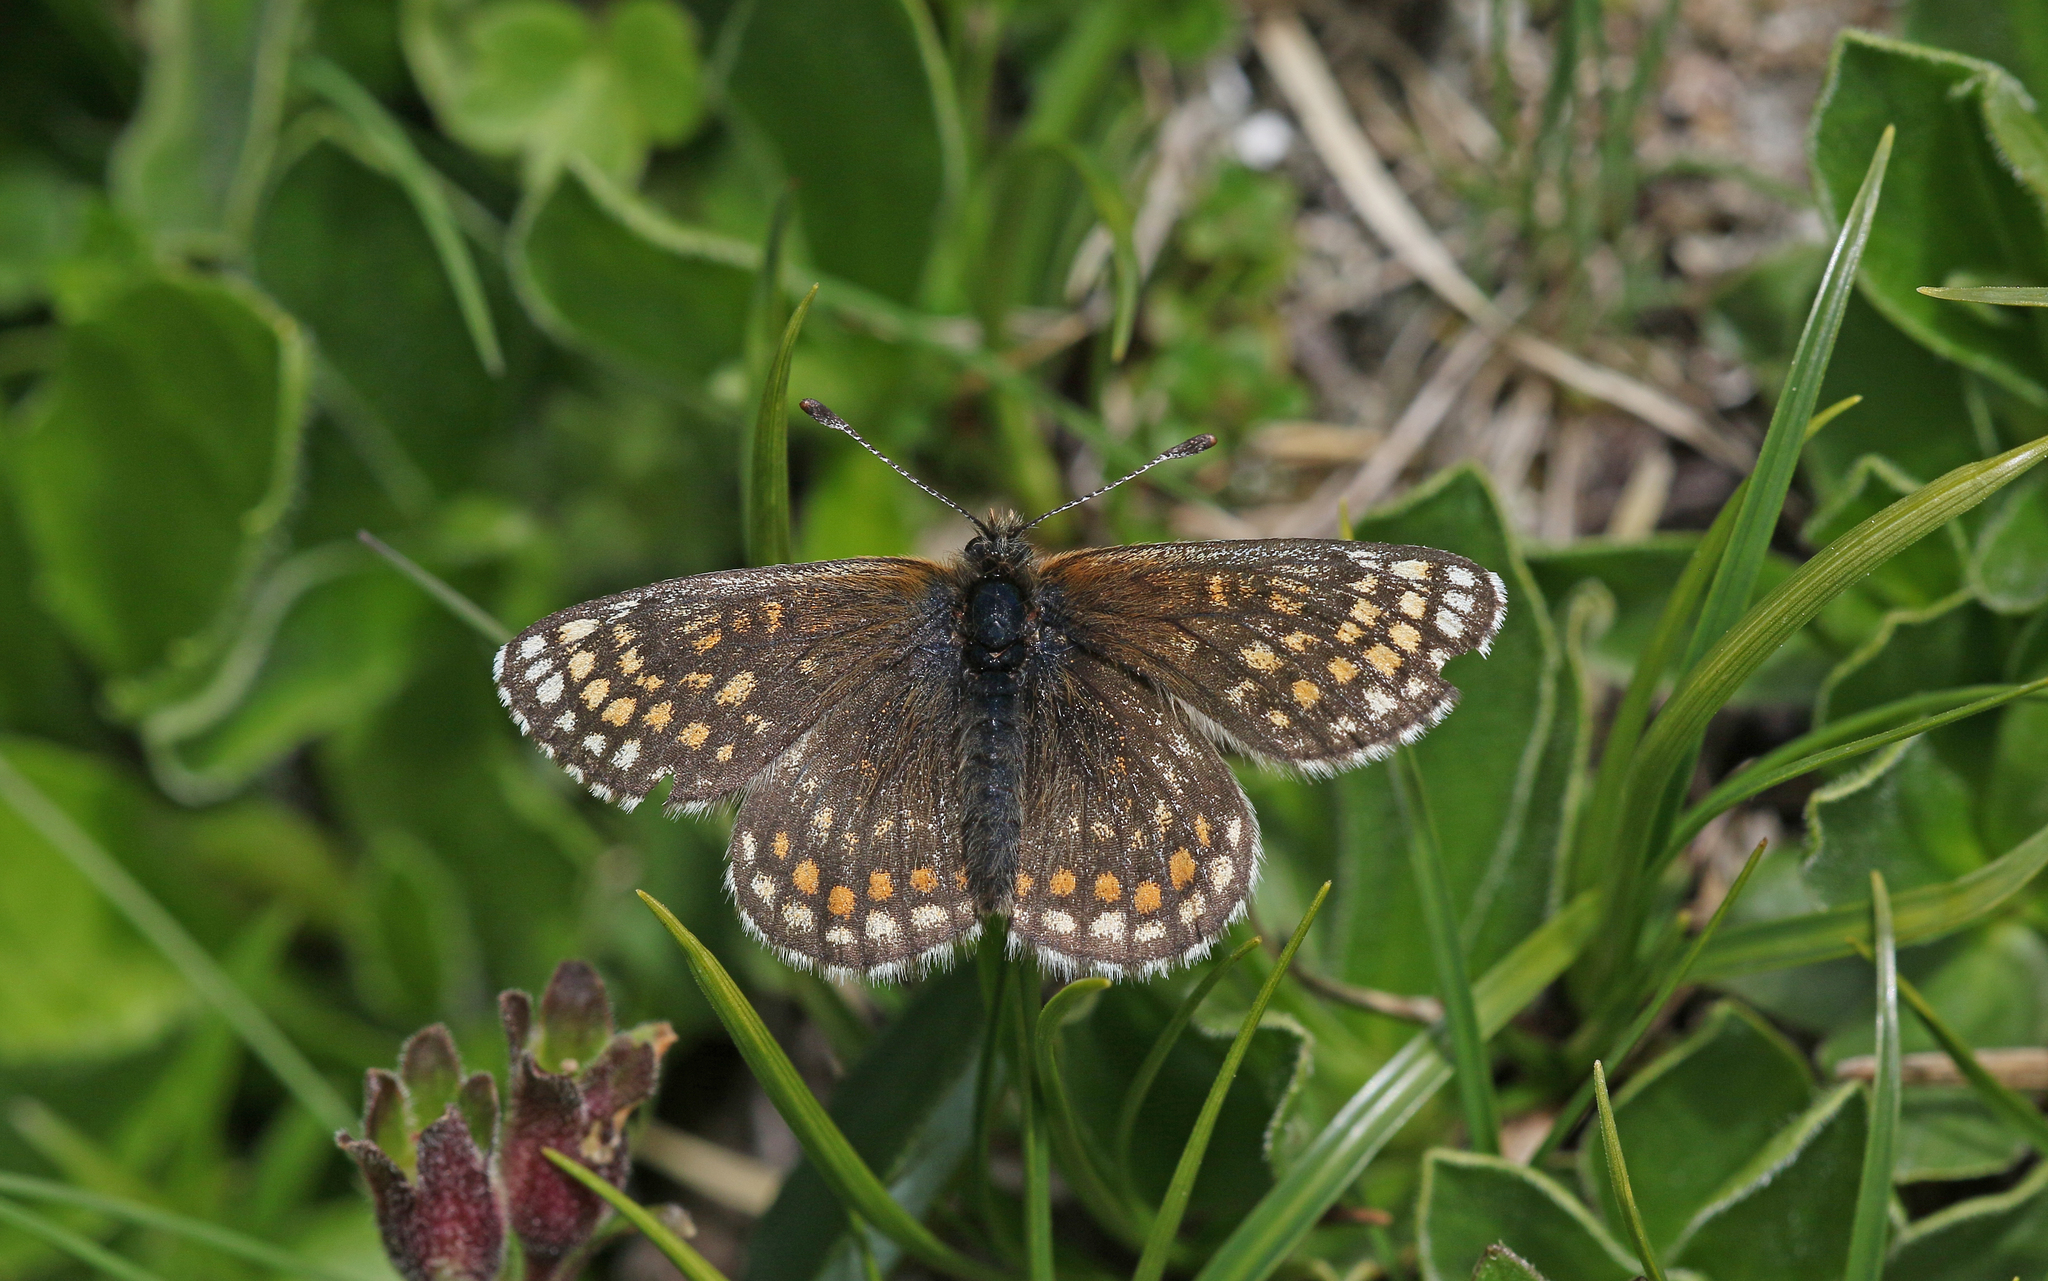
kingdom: Animalia
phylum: Arthropoda
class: Insecta
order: Lepidoptera
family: Nymphalidae
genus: Mellicta
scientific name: Mellicta asteria
